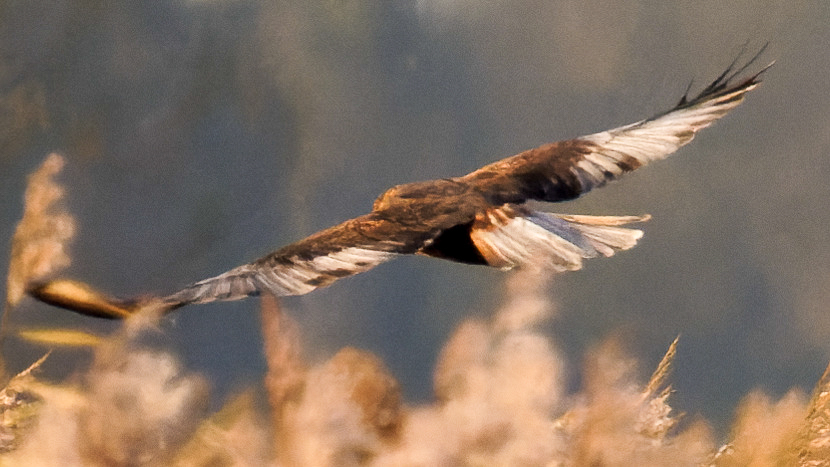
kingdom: Animalia
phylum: Chordata
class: Aves
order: Accipitriformes
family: Accipitridae
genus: Circus
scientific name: Circus aeruginosus
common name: Western marsh harrier
